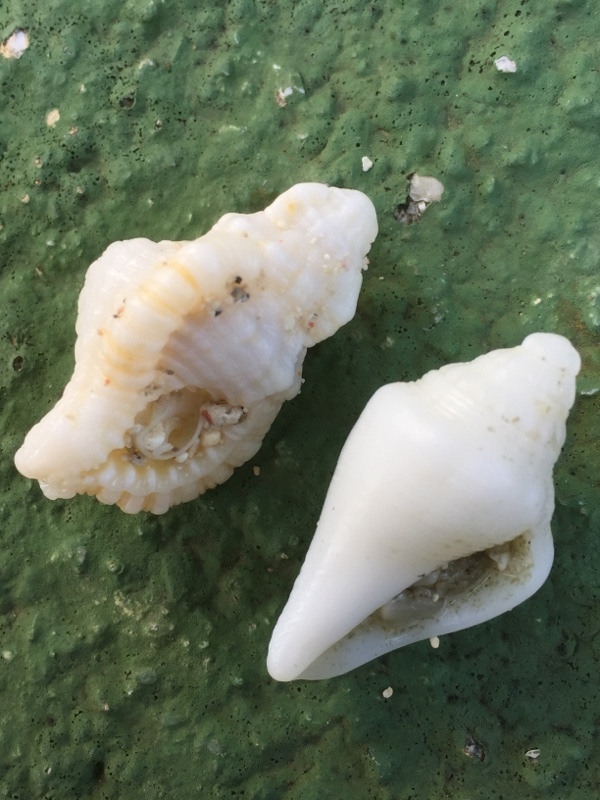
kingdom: Animalia
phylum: Mollusca
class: Gastropoda
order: Littorinimorpha
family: Cymatiidae
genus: Monoplex
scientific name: Monoplex nicobaricus
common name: Goldmouth triton
